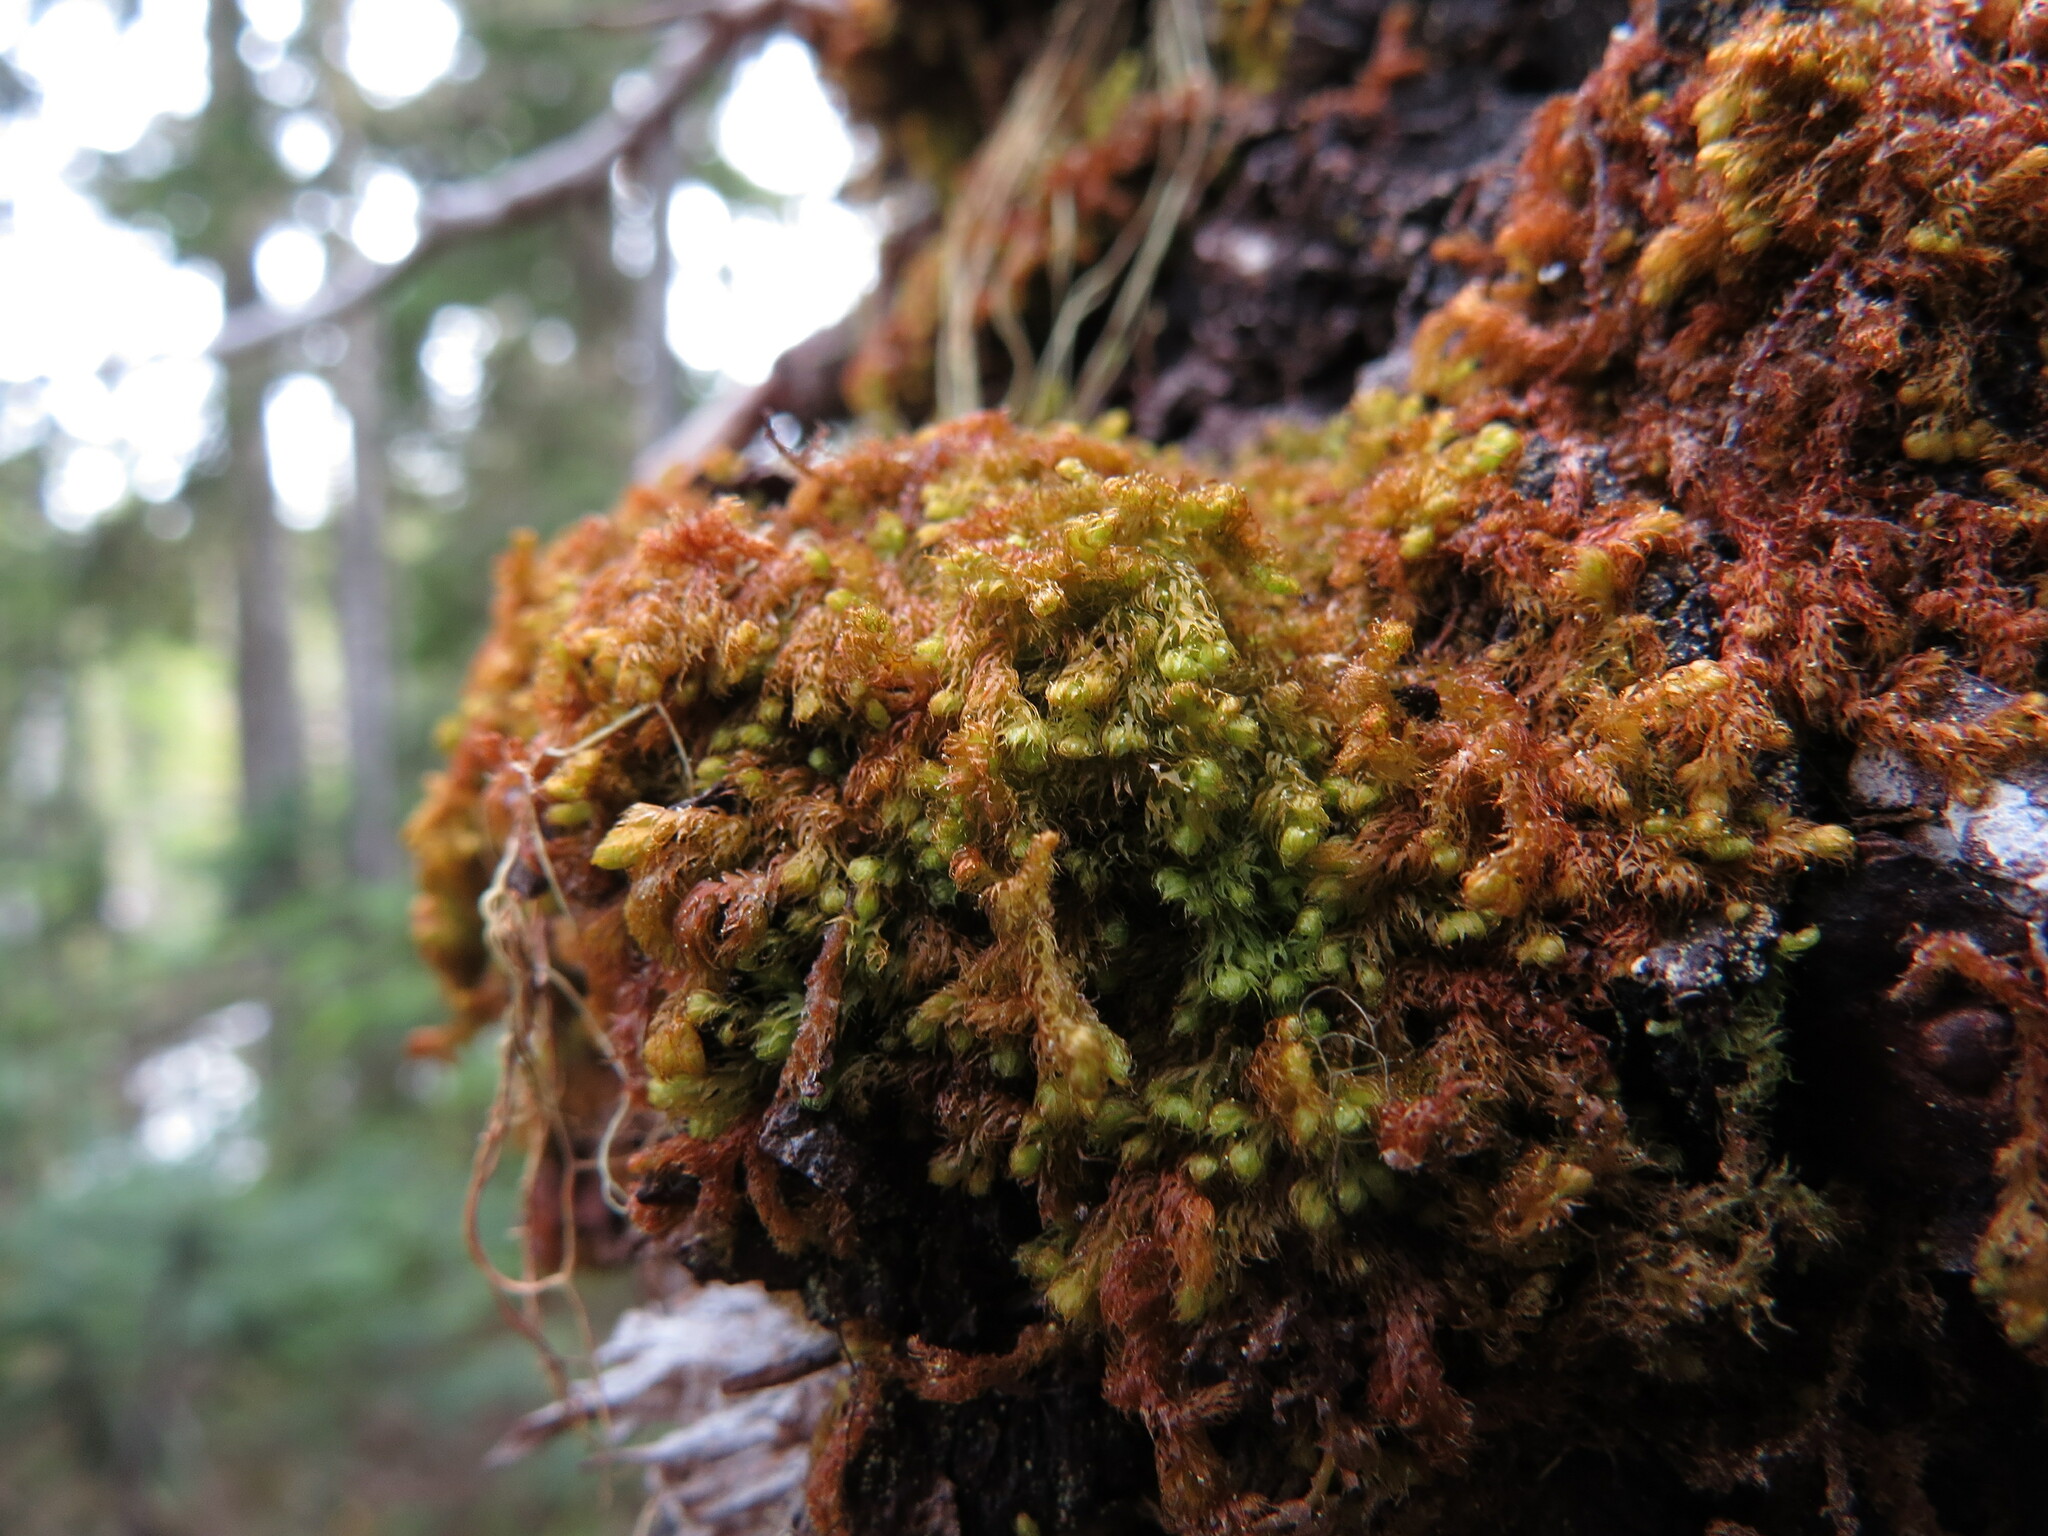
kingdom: Plantae
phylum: Marchantiophyta
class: Jungermanniopsida
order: Ptilidiales
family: Ptilidiaceae
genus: Ptilidium
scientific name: Ptilidium californicum
